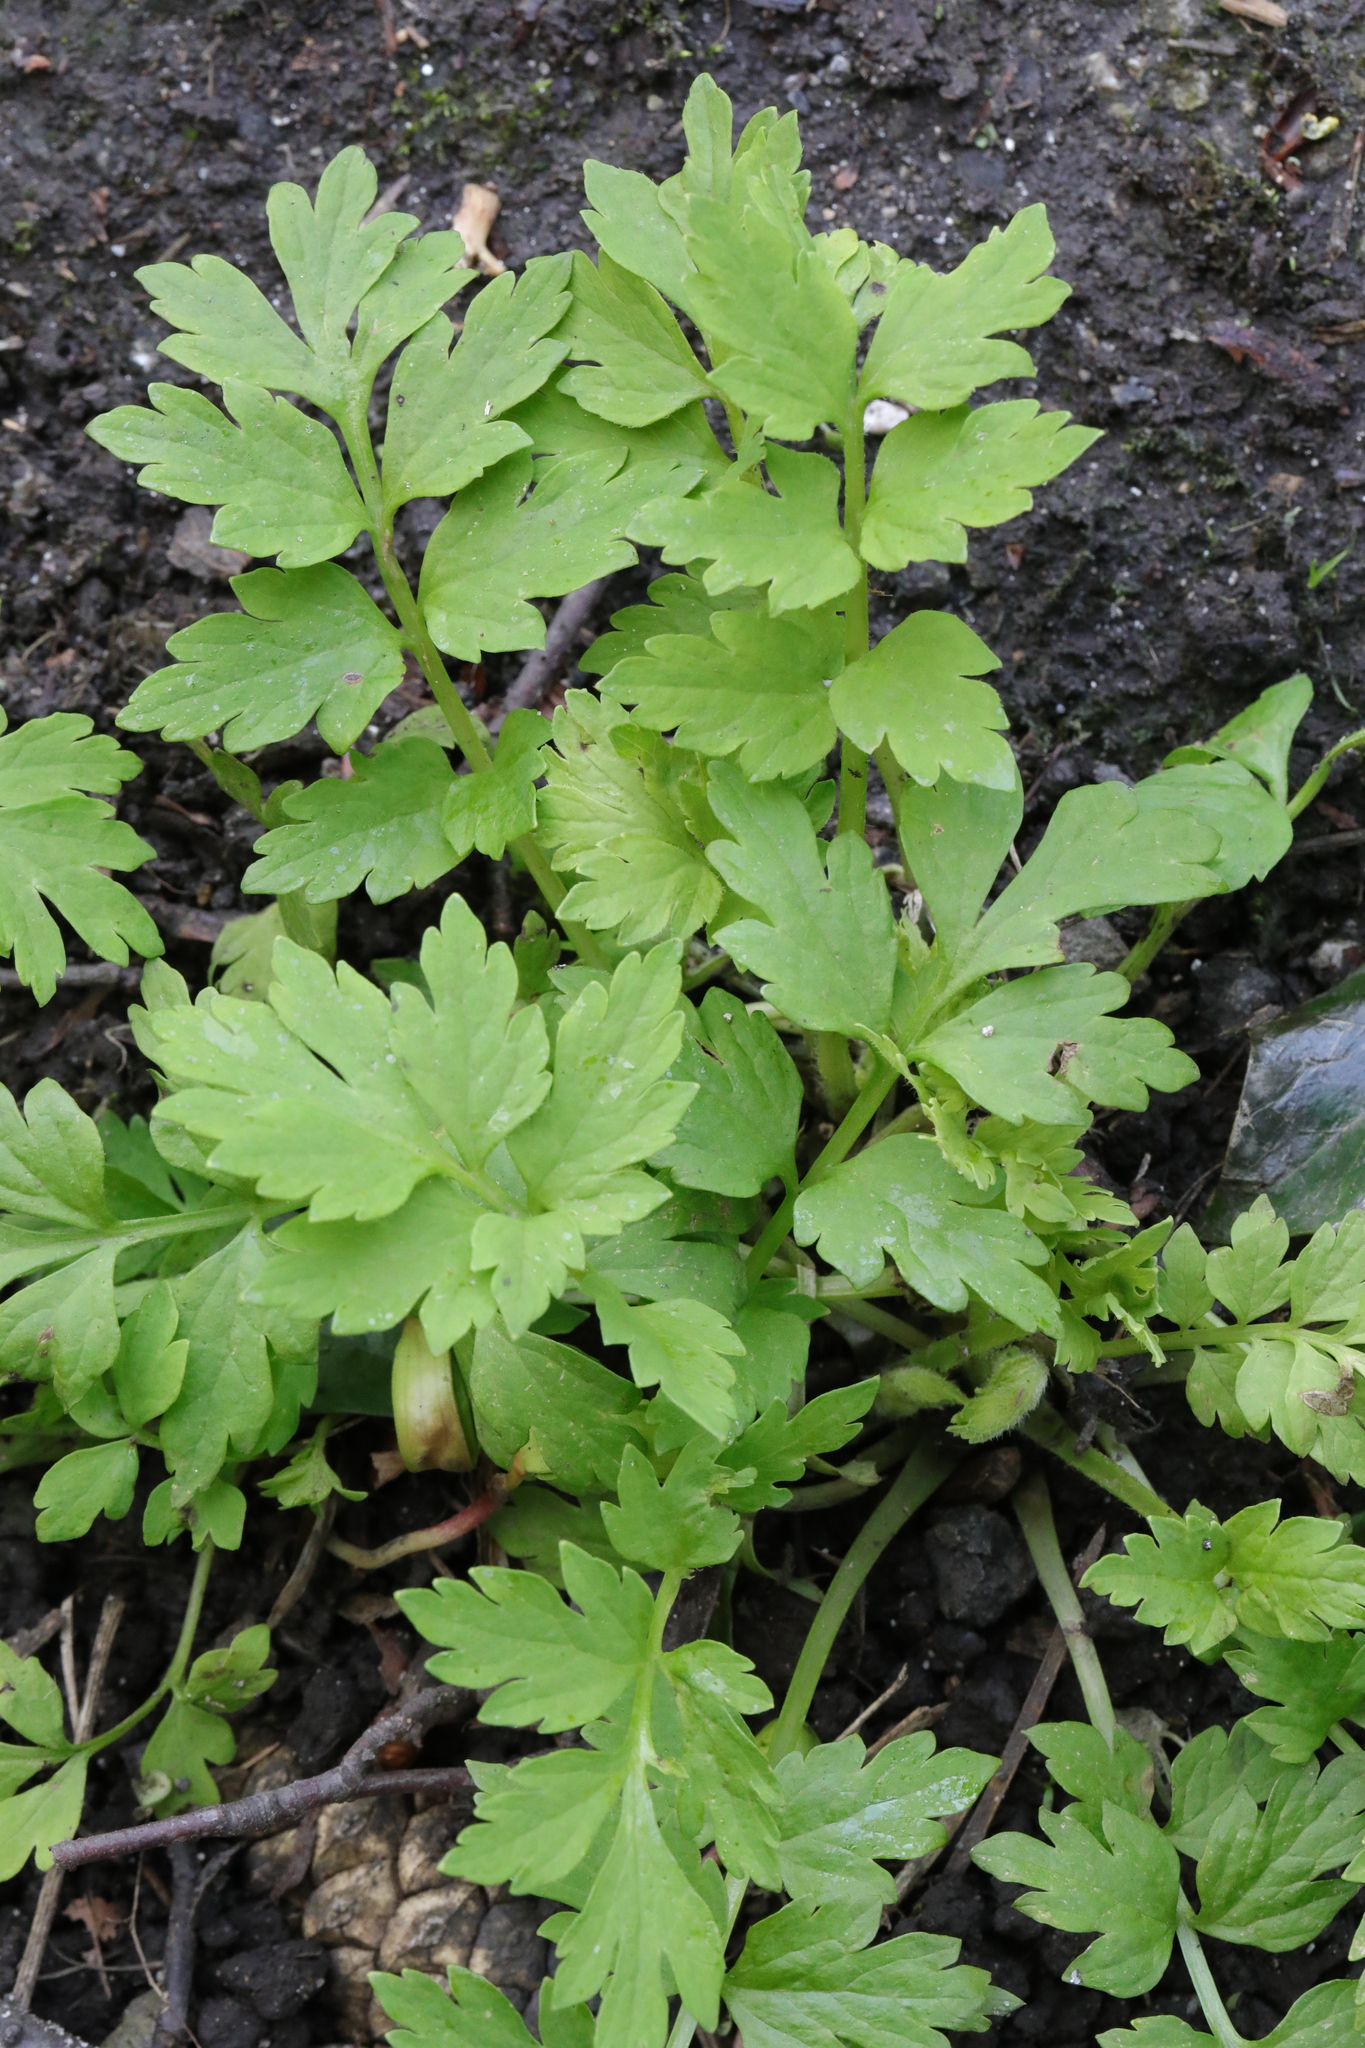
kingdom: Plantae
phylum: Tracheophyta
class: Magnoliopsida
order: Ranunculales
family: Papaveraceae
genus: Papaver
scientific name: Papaver cambricum
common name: Poppy
